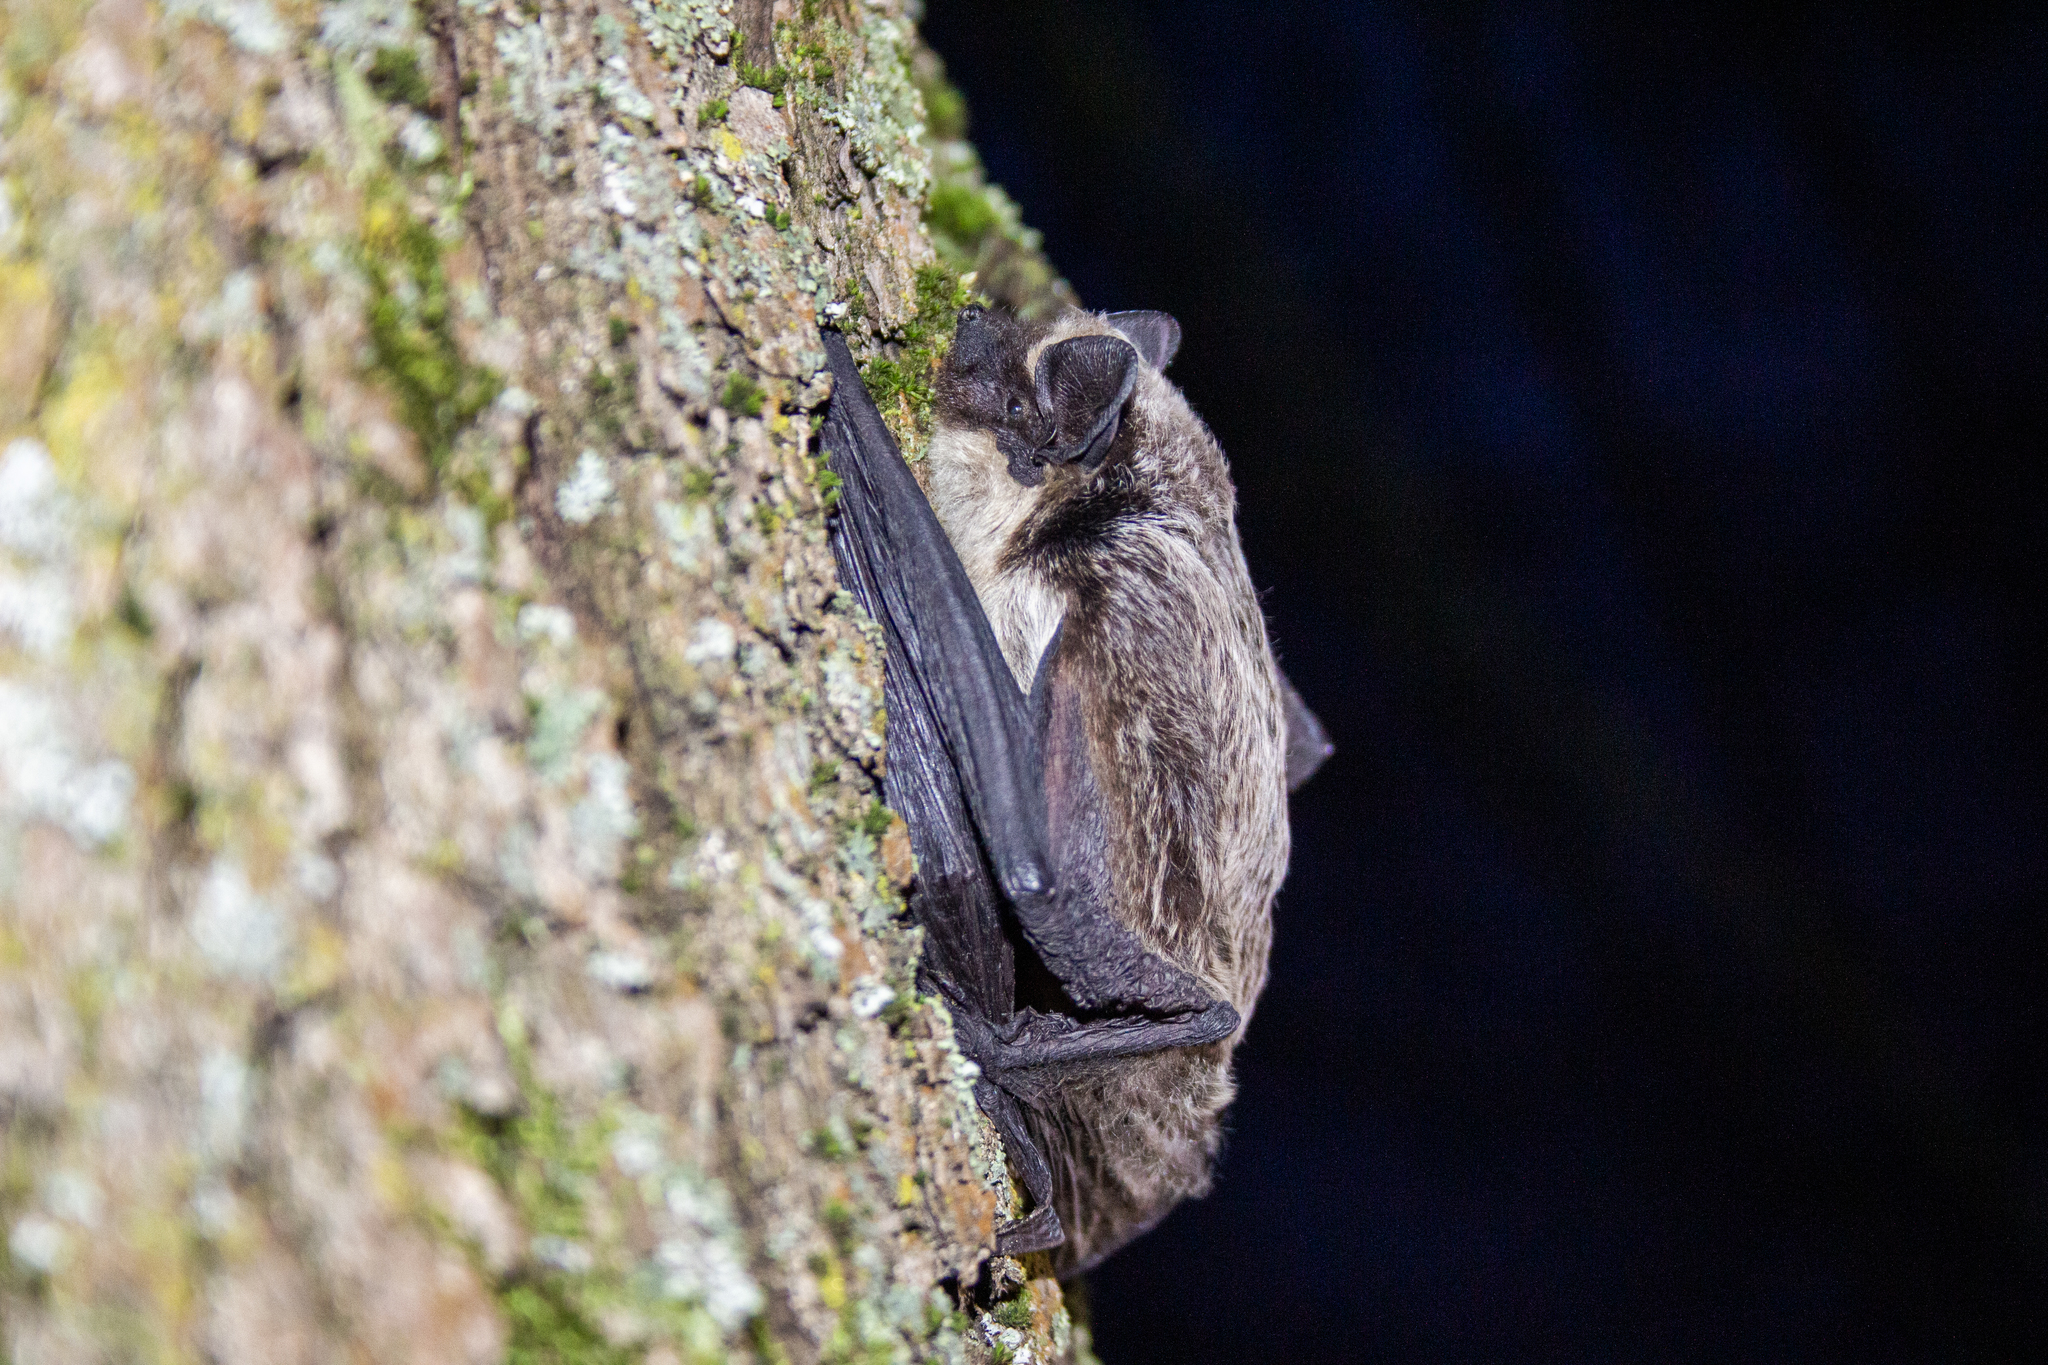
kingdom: Animalia
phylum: Chordata
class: Mammalia
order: Chiroptera
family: Vespertilionidae
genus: Vespertilio
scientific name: Vespertilio murinus
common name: Particolored bat
